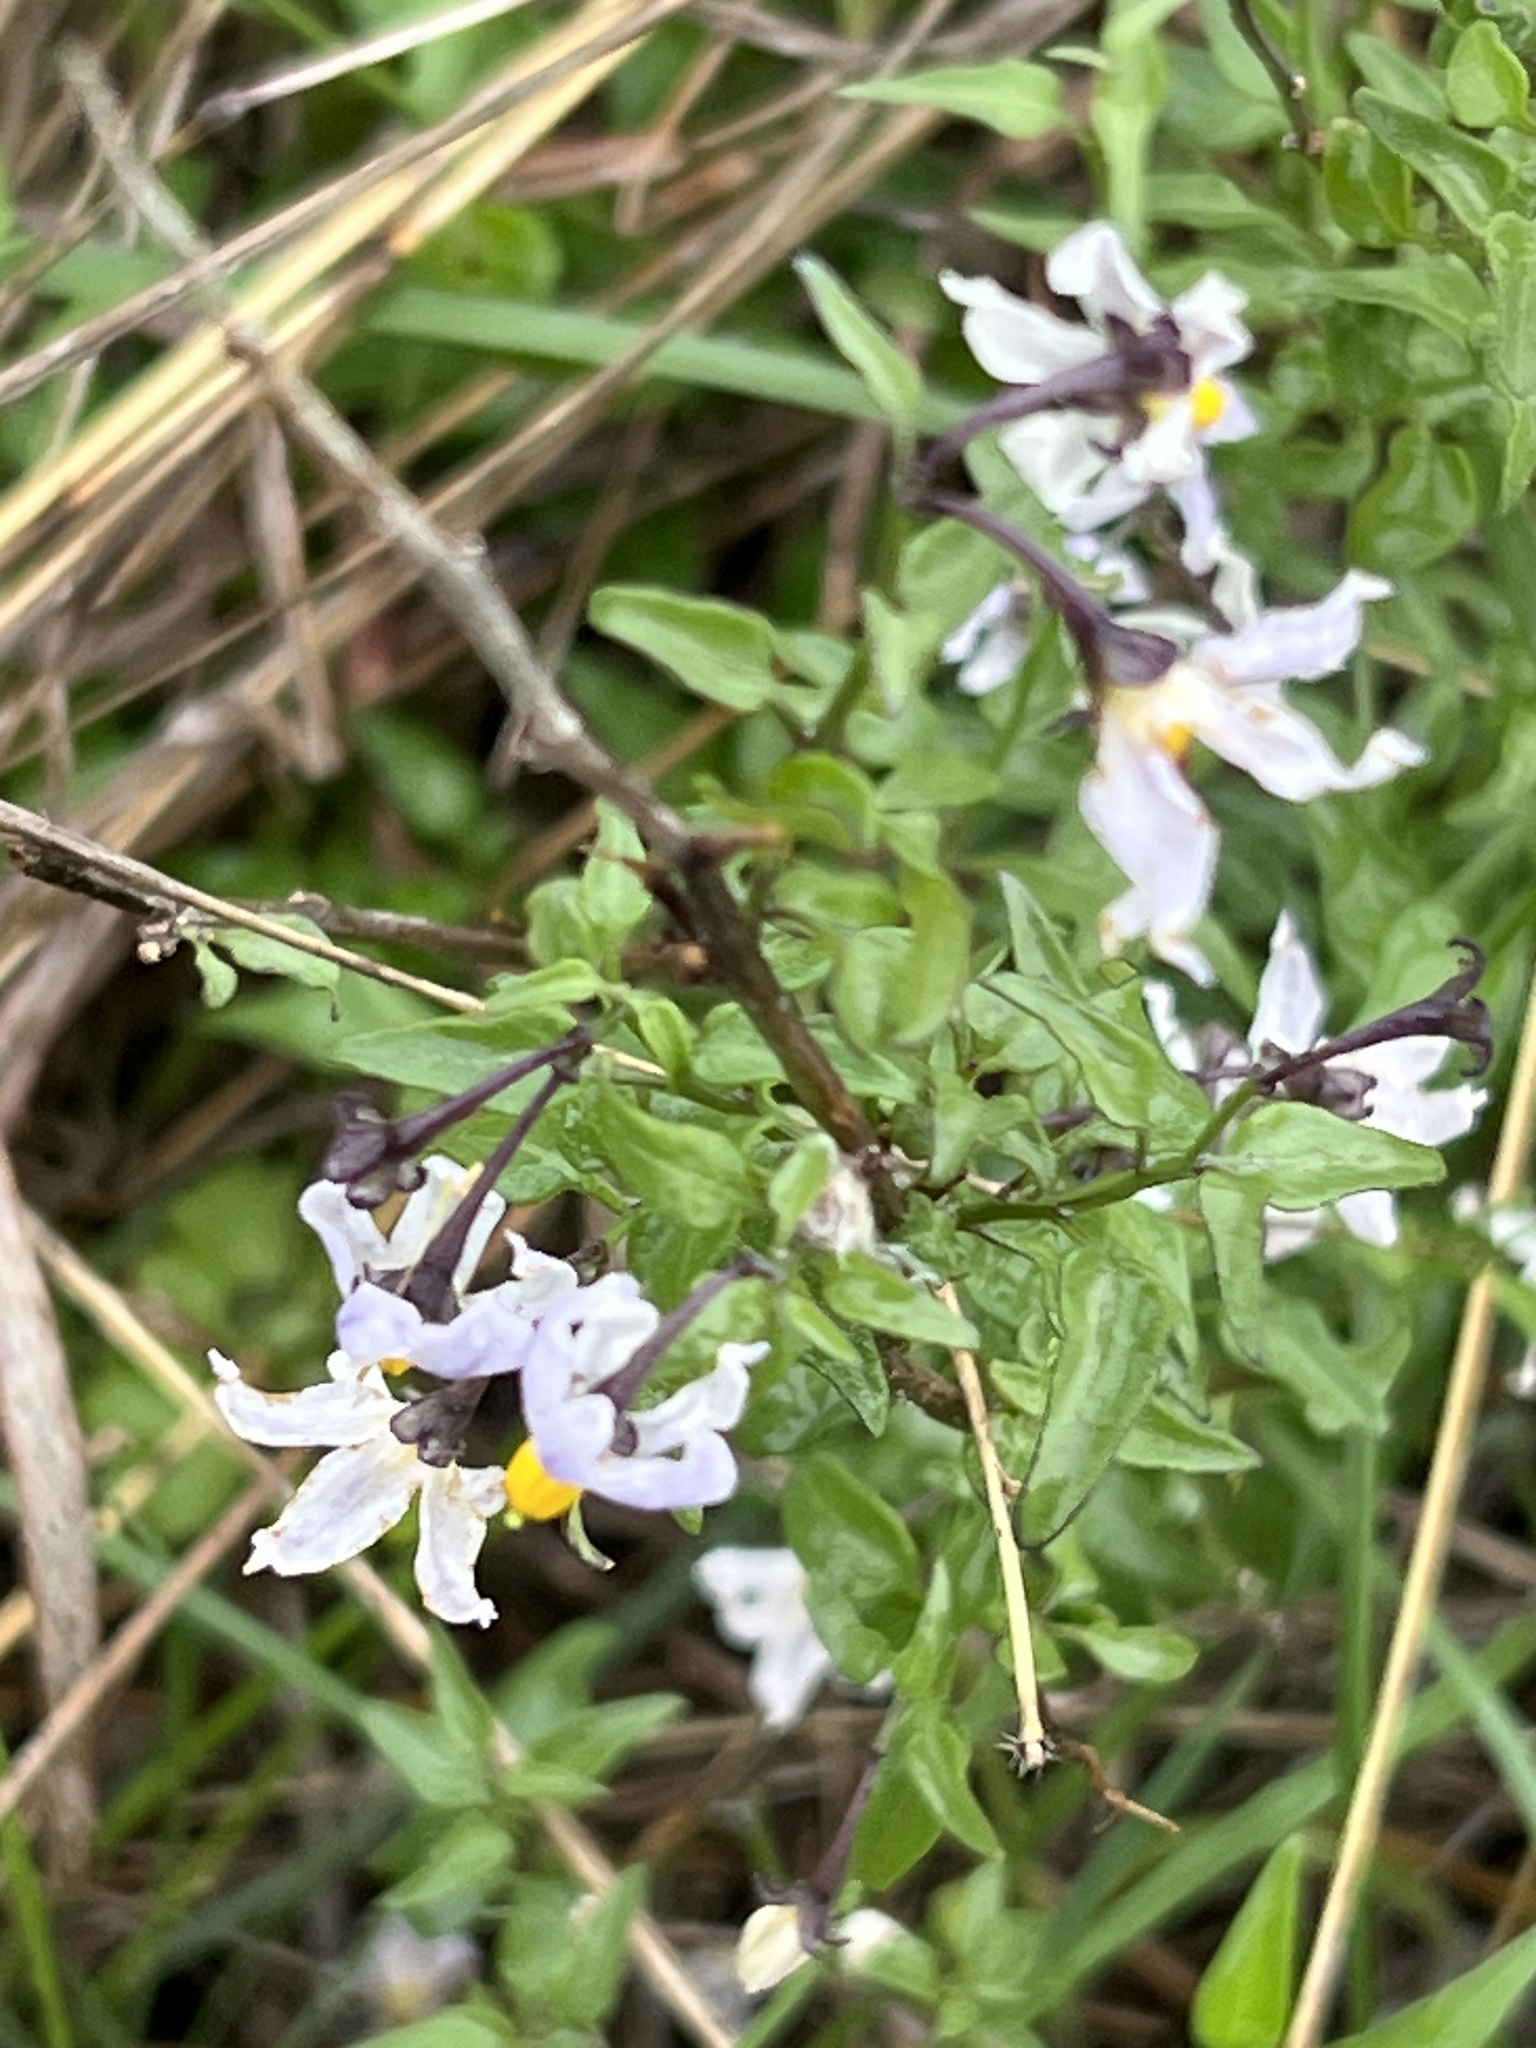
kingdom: Plantae
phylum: Tracheophyta
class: Magnoliopsida
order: Solanales
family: Solanaceae
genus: Solanum
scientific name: Solanum triquetrum
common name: Texas nightshade
